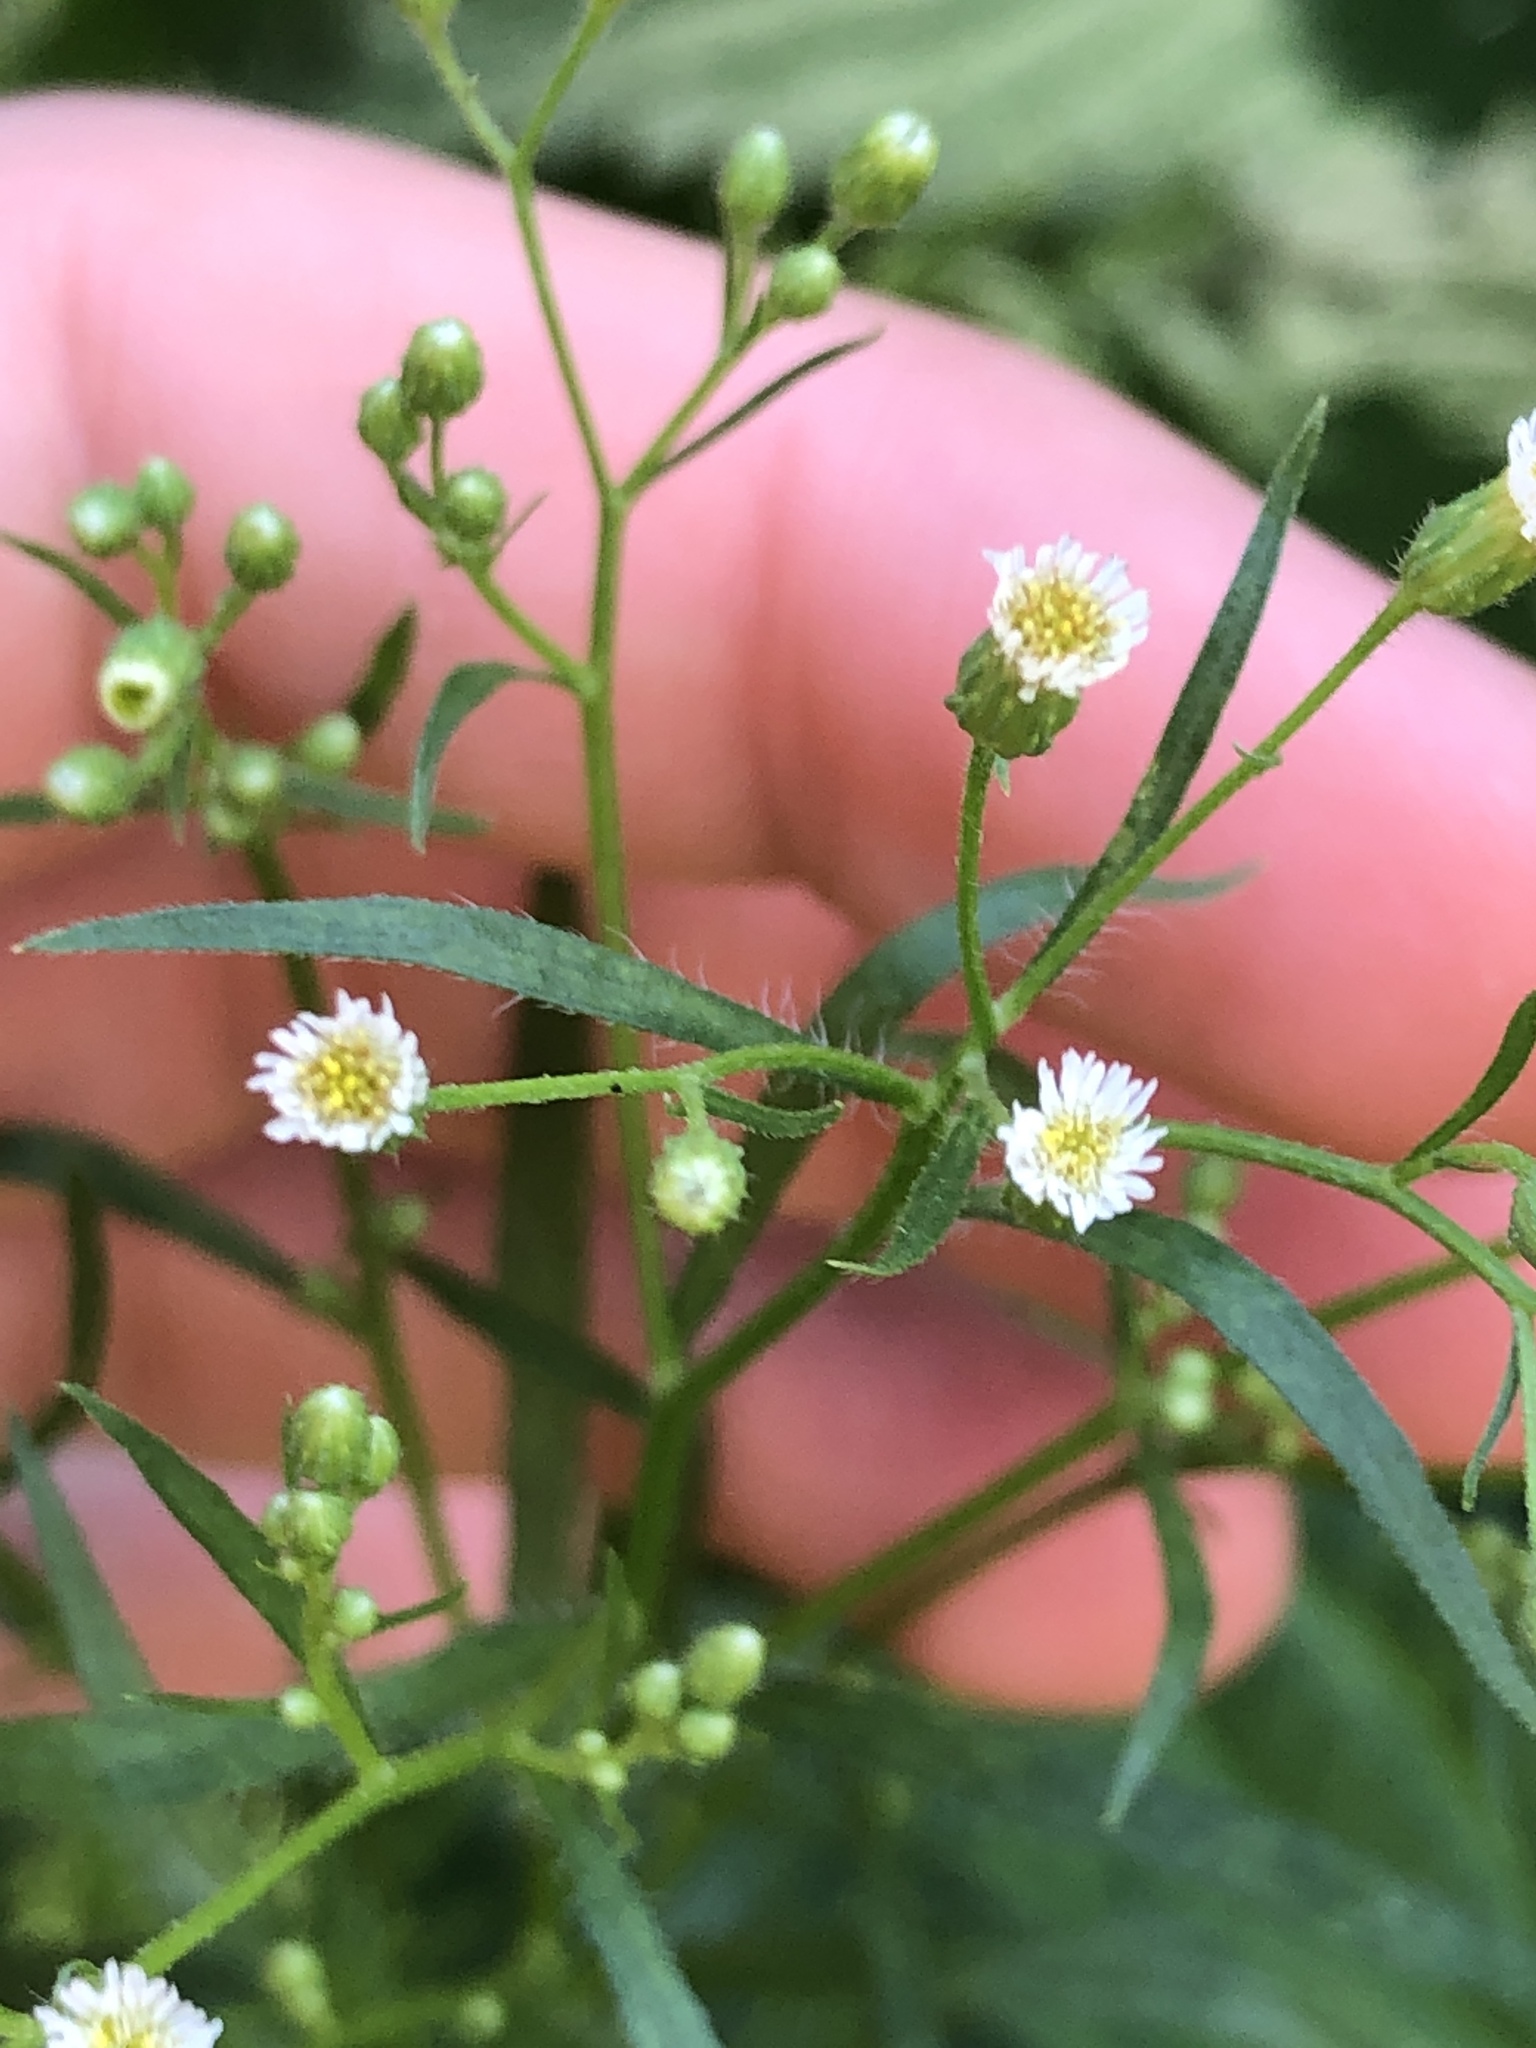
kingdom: Plantae
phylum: Tracheophyta
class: Magnoliopsida
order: Asterales
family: Asteraceae
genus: Erigeron
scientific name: Erigeron canadensis
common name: Canadian fleabane
